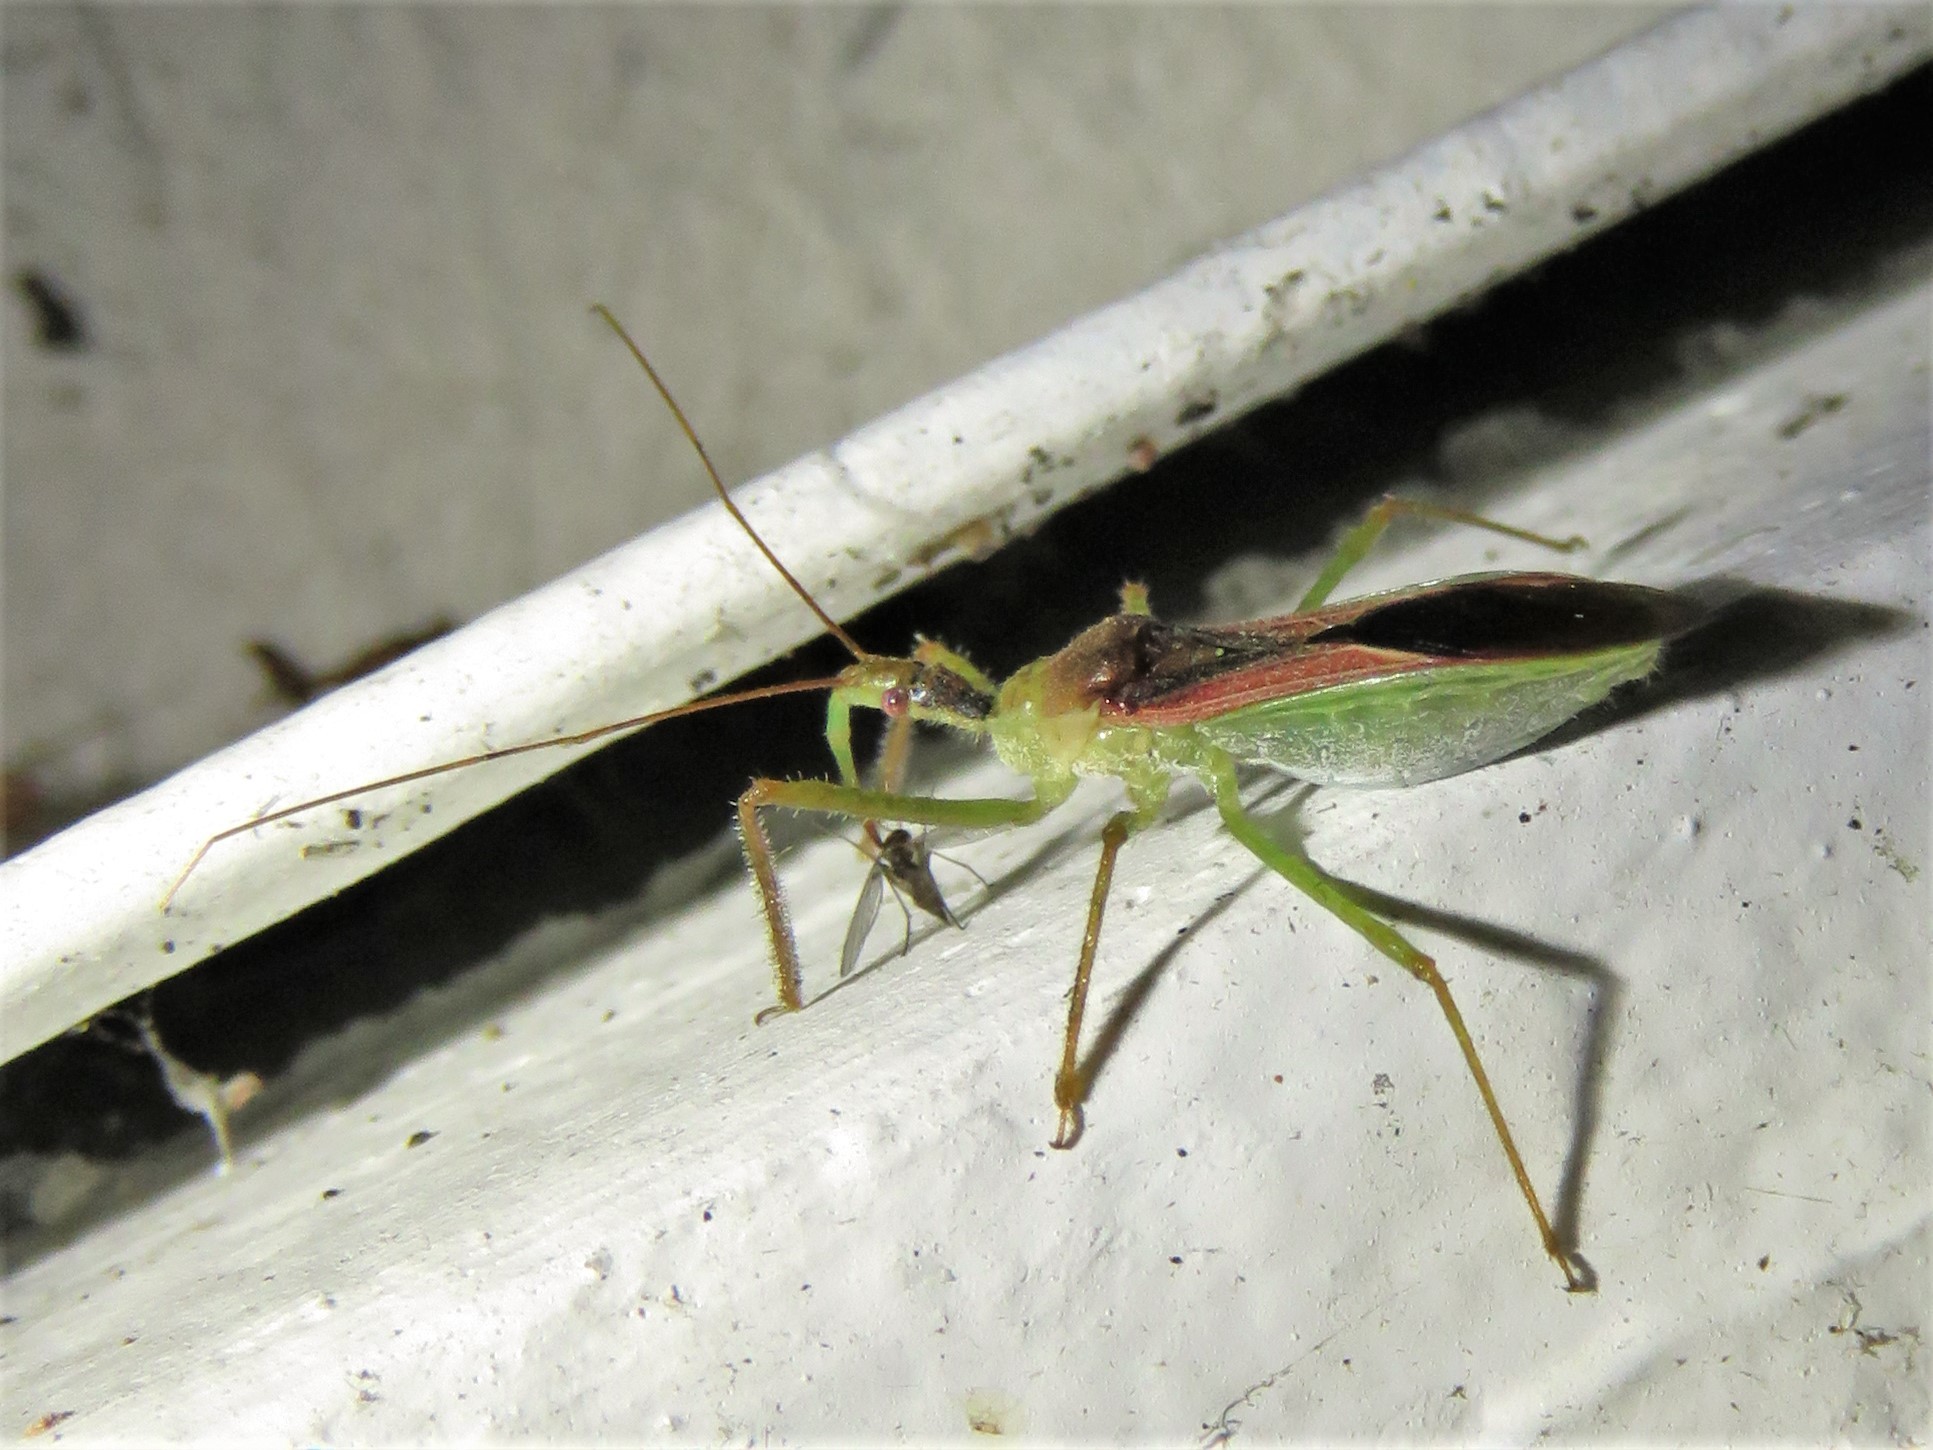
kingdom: Animalia
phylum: Arthropoda
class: Insecta
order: Hemiptera
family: Reduviidae
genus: Zelus
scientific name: Zelus renardii
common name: Assassin bug
